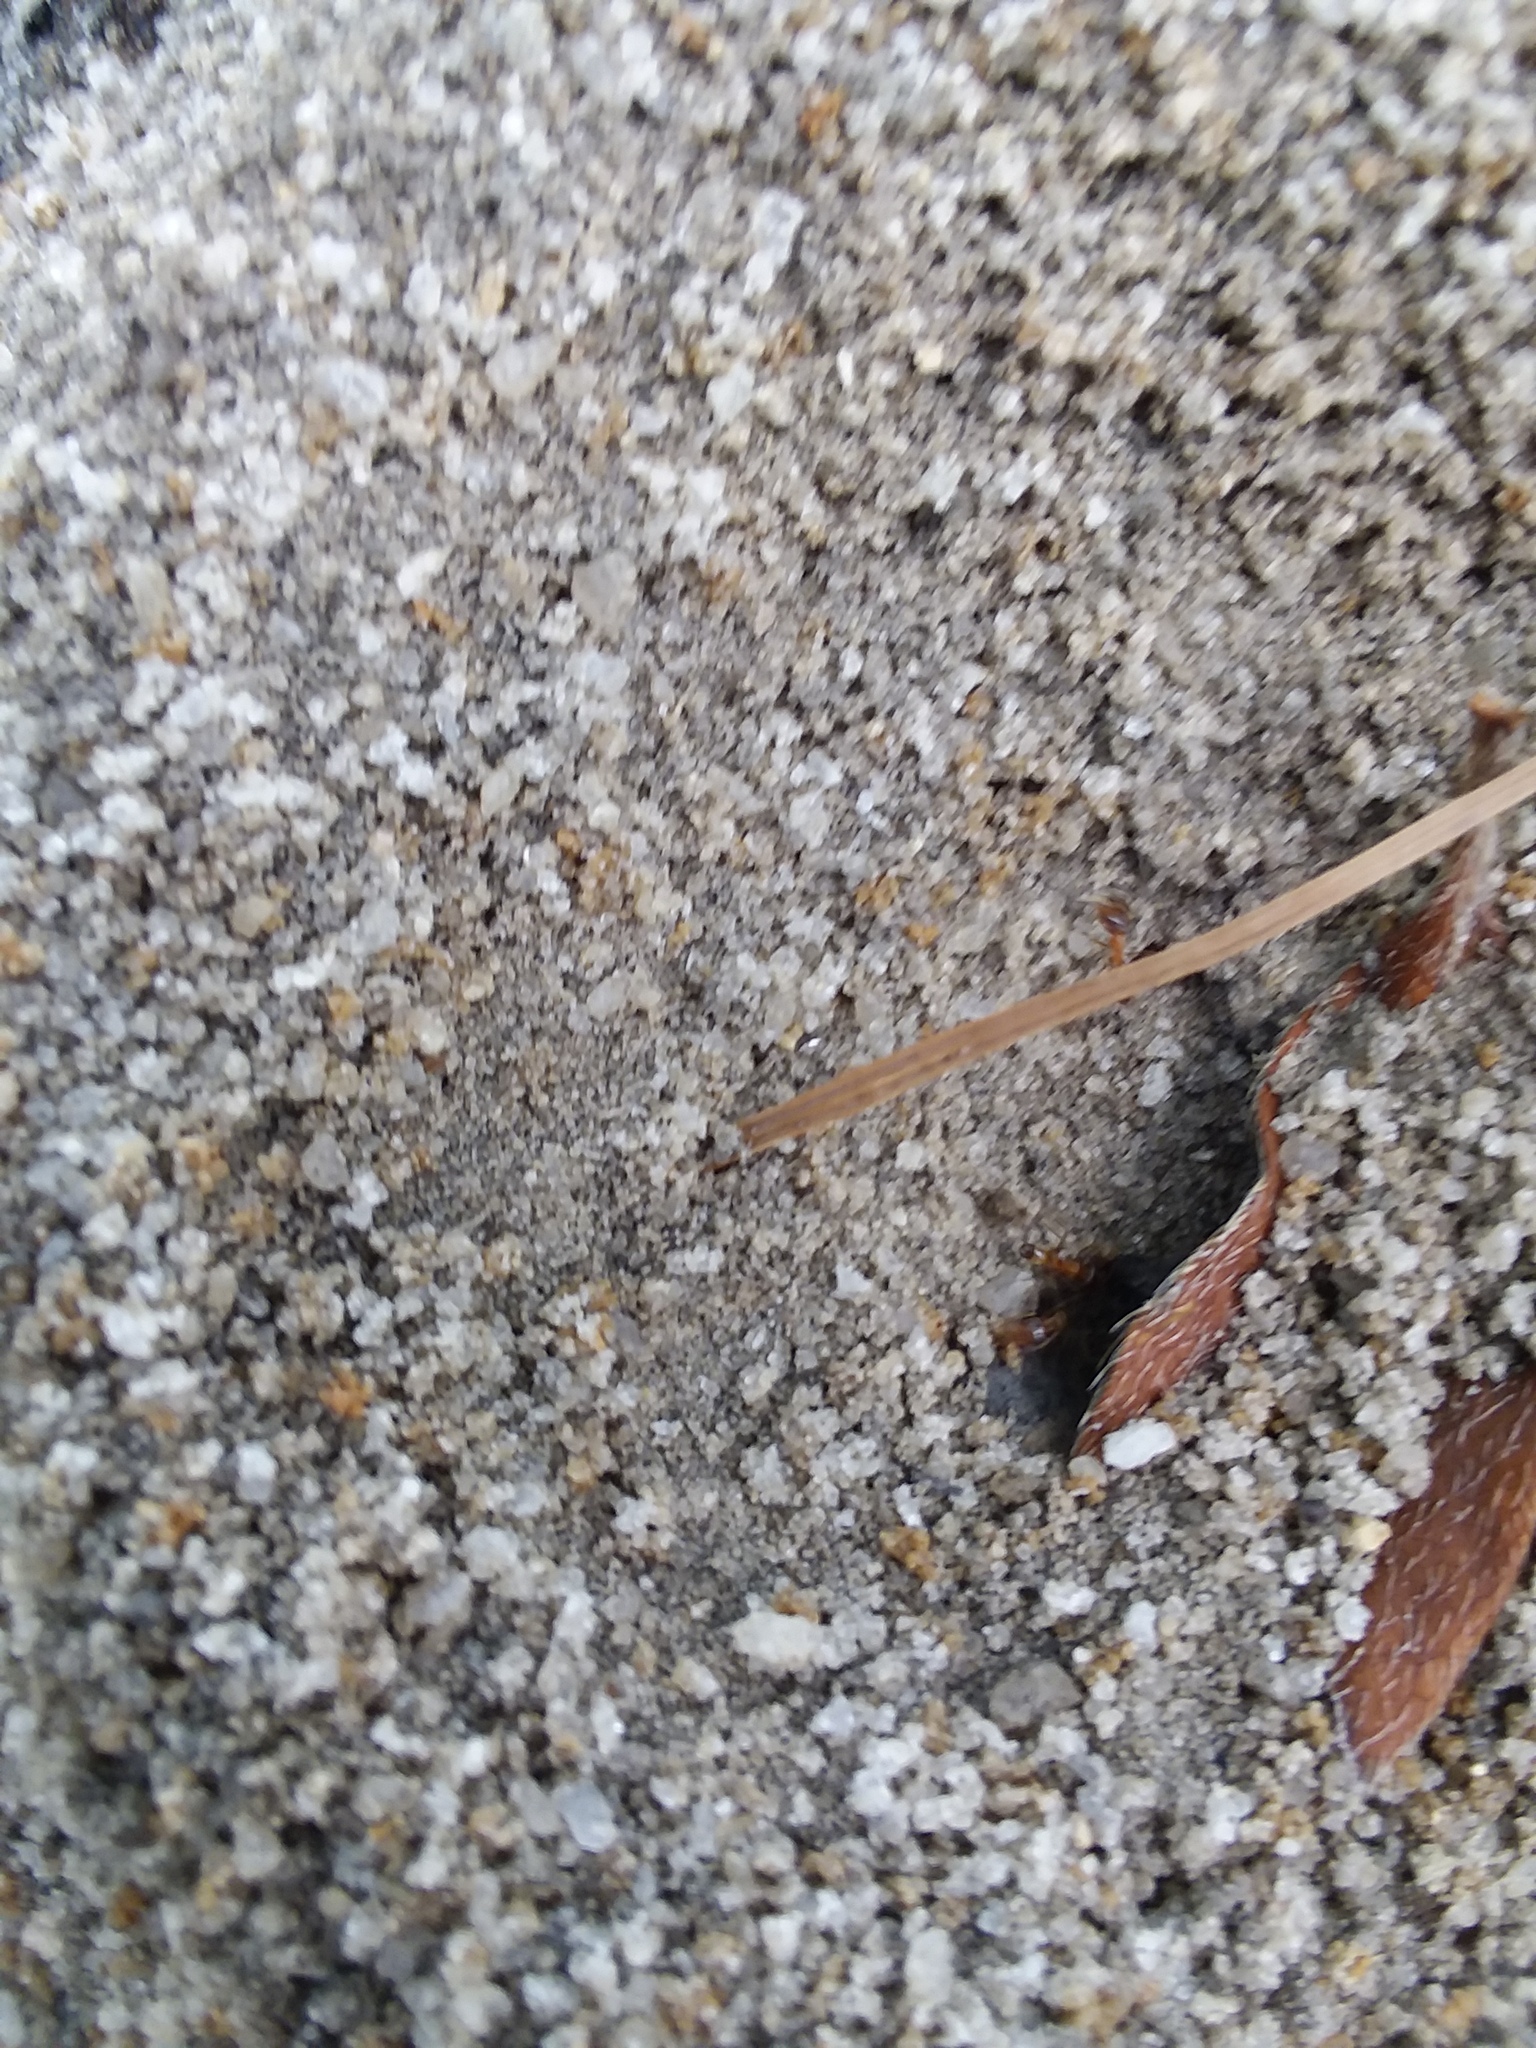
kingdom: Animalia
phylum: Arthropoda
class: Insecta
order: Hymenoptera
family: Formicidae
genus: Dorymyrmex
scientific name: Dorymyrmex bureni
